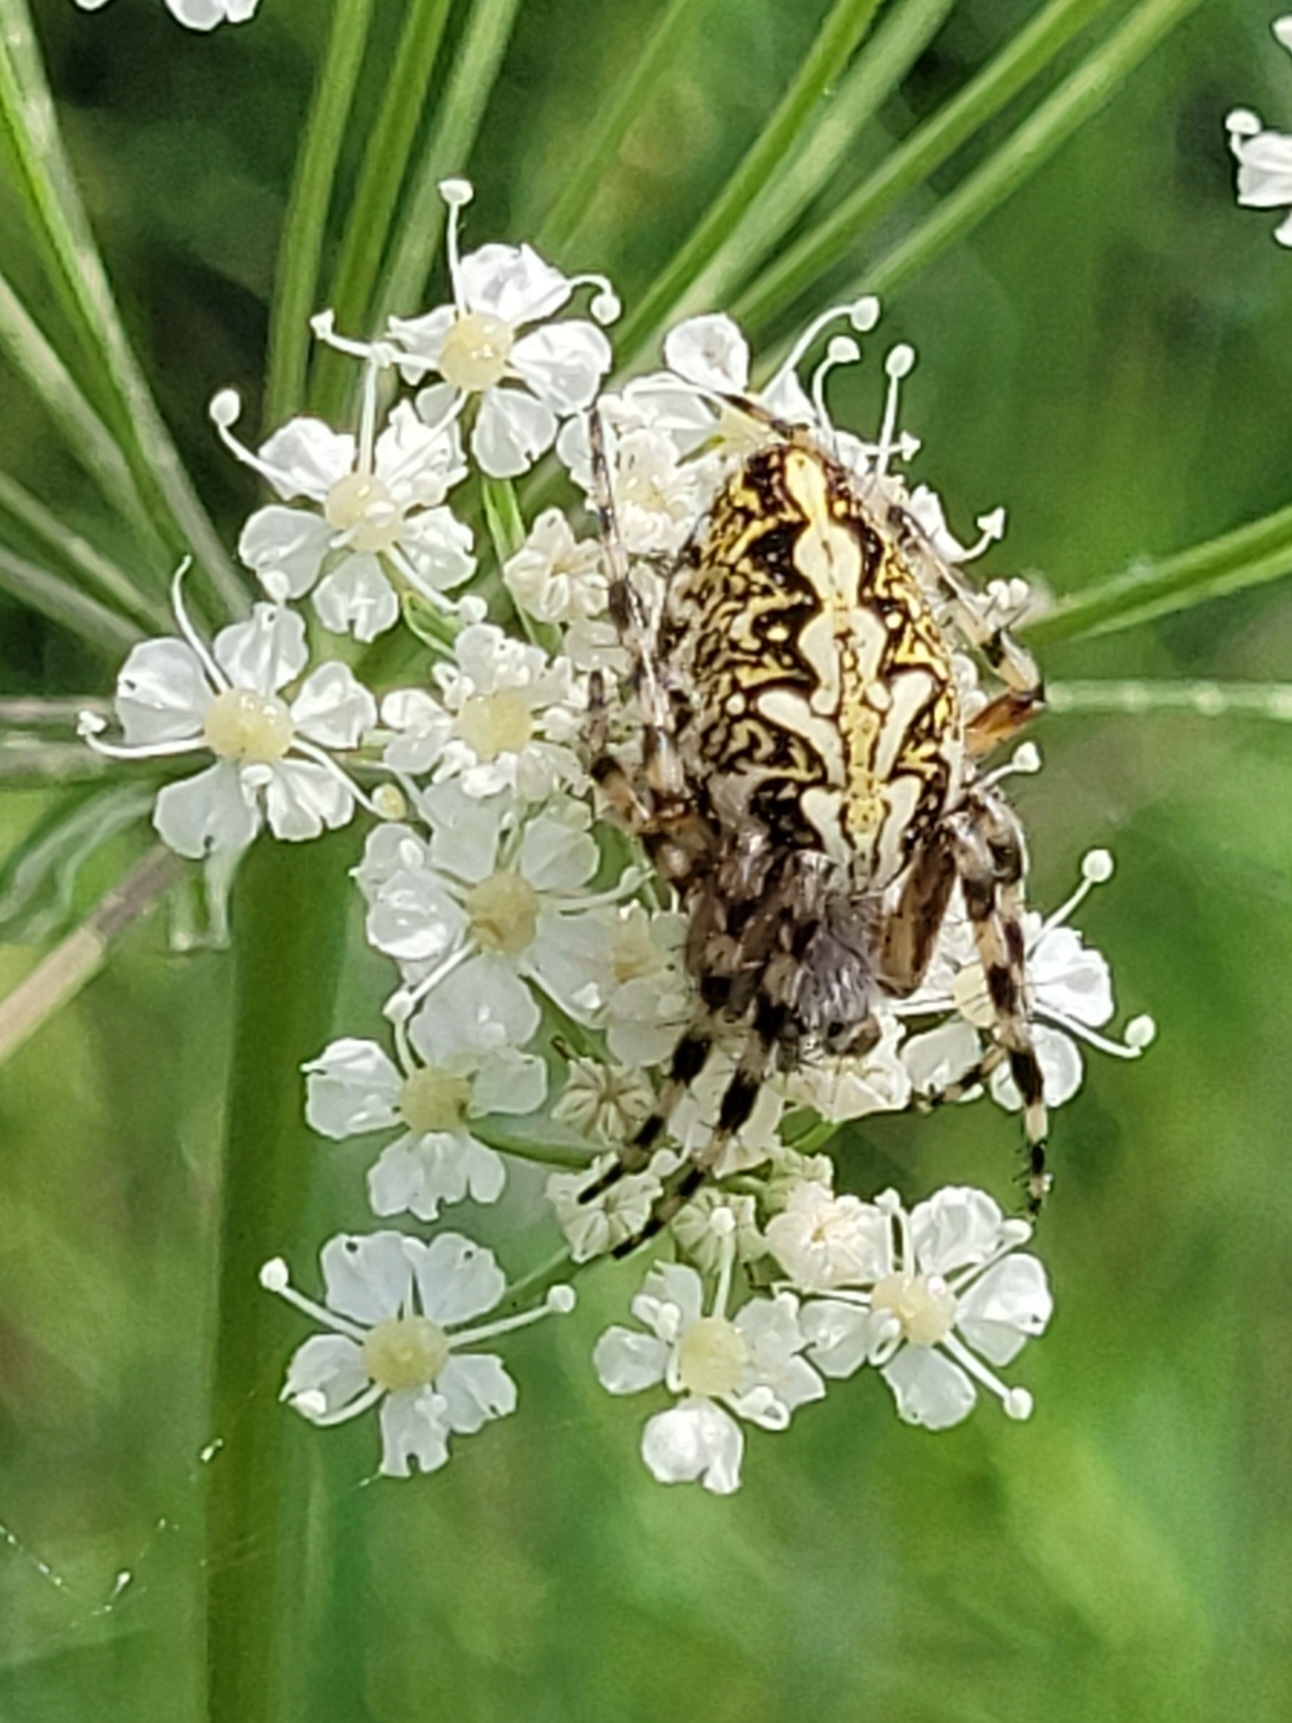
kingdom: Animalia
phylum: Arthropoda
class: Arachnida
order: Araneae
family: Araneidae
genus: Aculepeira
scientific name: Aculepeira ceropegia
